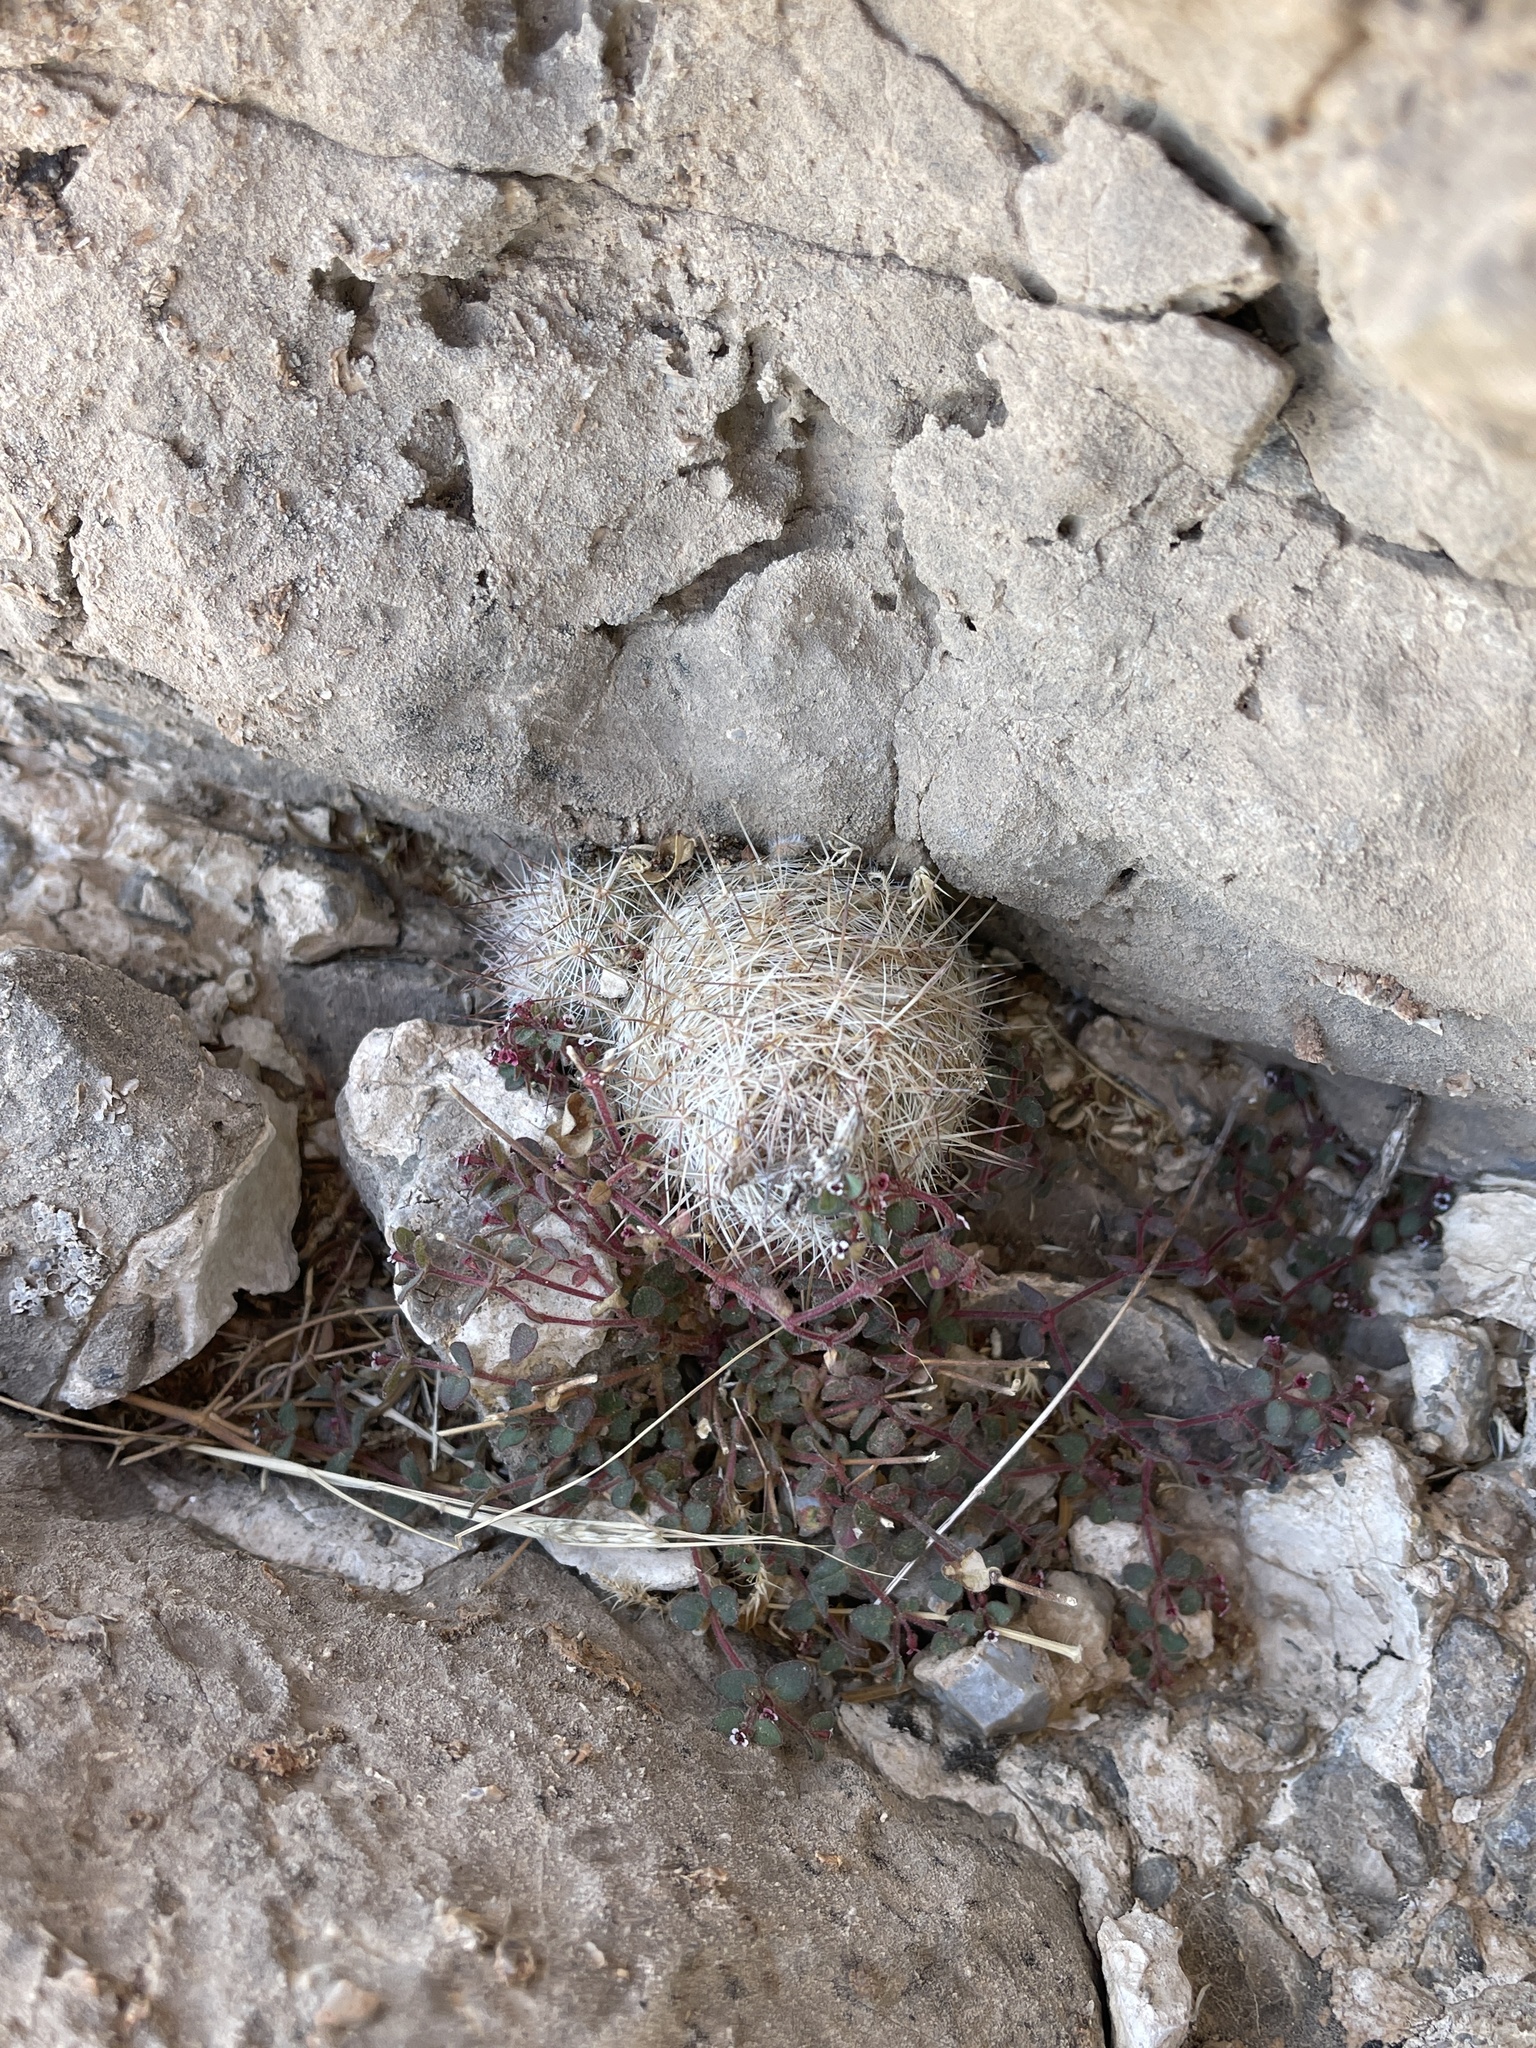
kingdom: Plantae
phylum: Tracheophyta
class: Magnoliopsida
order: Caryophyllales
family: Cactaceae
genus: Pelecyphora
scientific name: Pelecyphora tuberculosa
